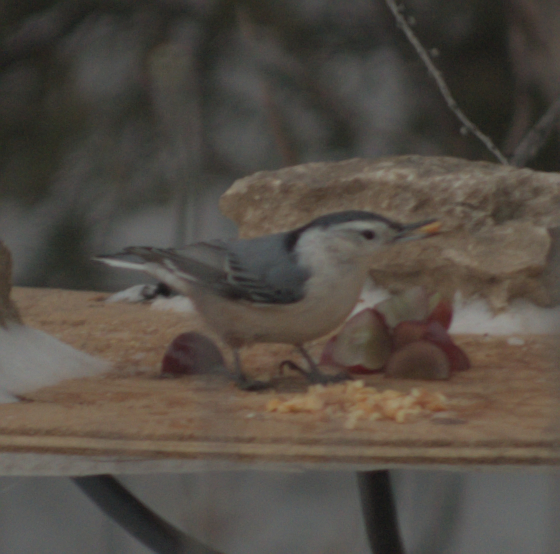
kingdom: Animalia
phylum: Chordata
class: Aves
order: Passeriformes
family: Sittidae
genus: Sitta
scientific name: Sitta carolinensis
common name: White-breasted nuthatch
